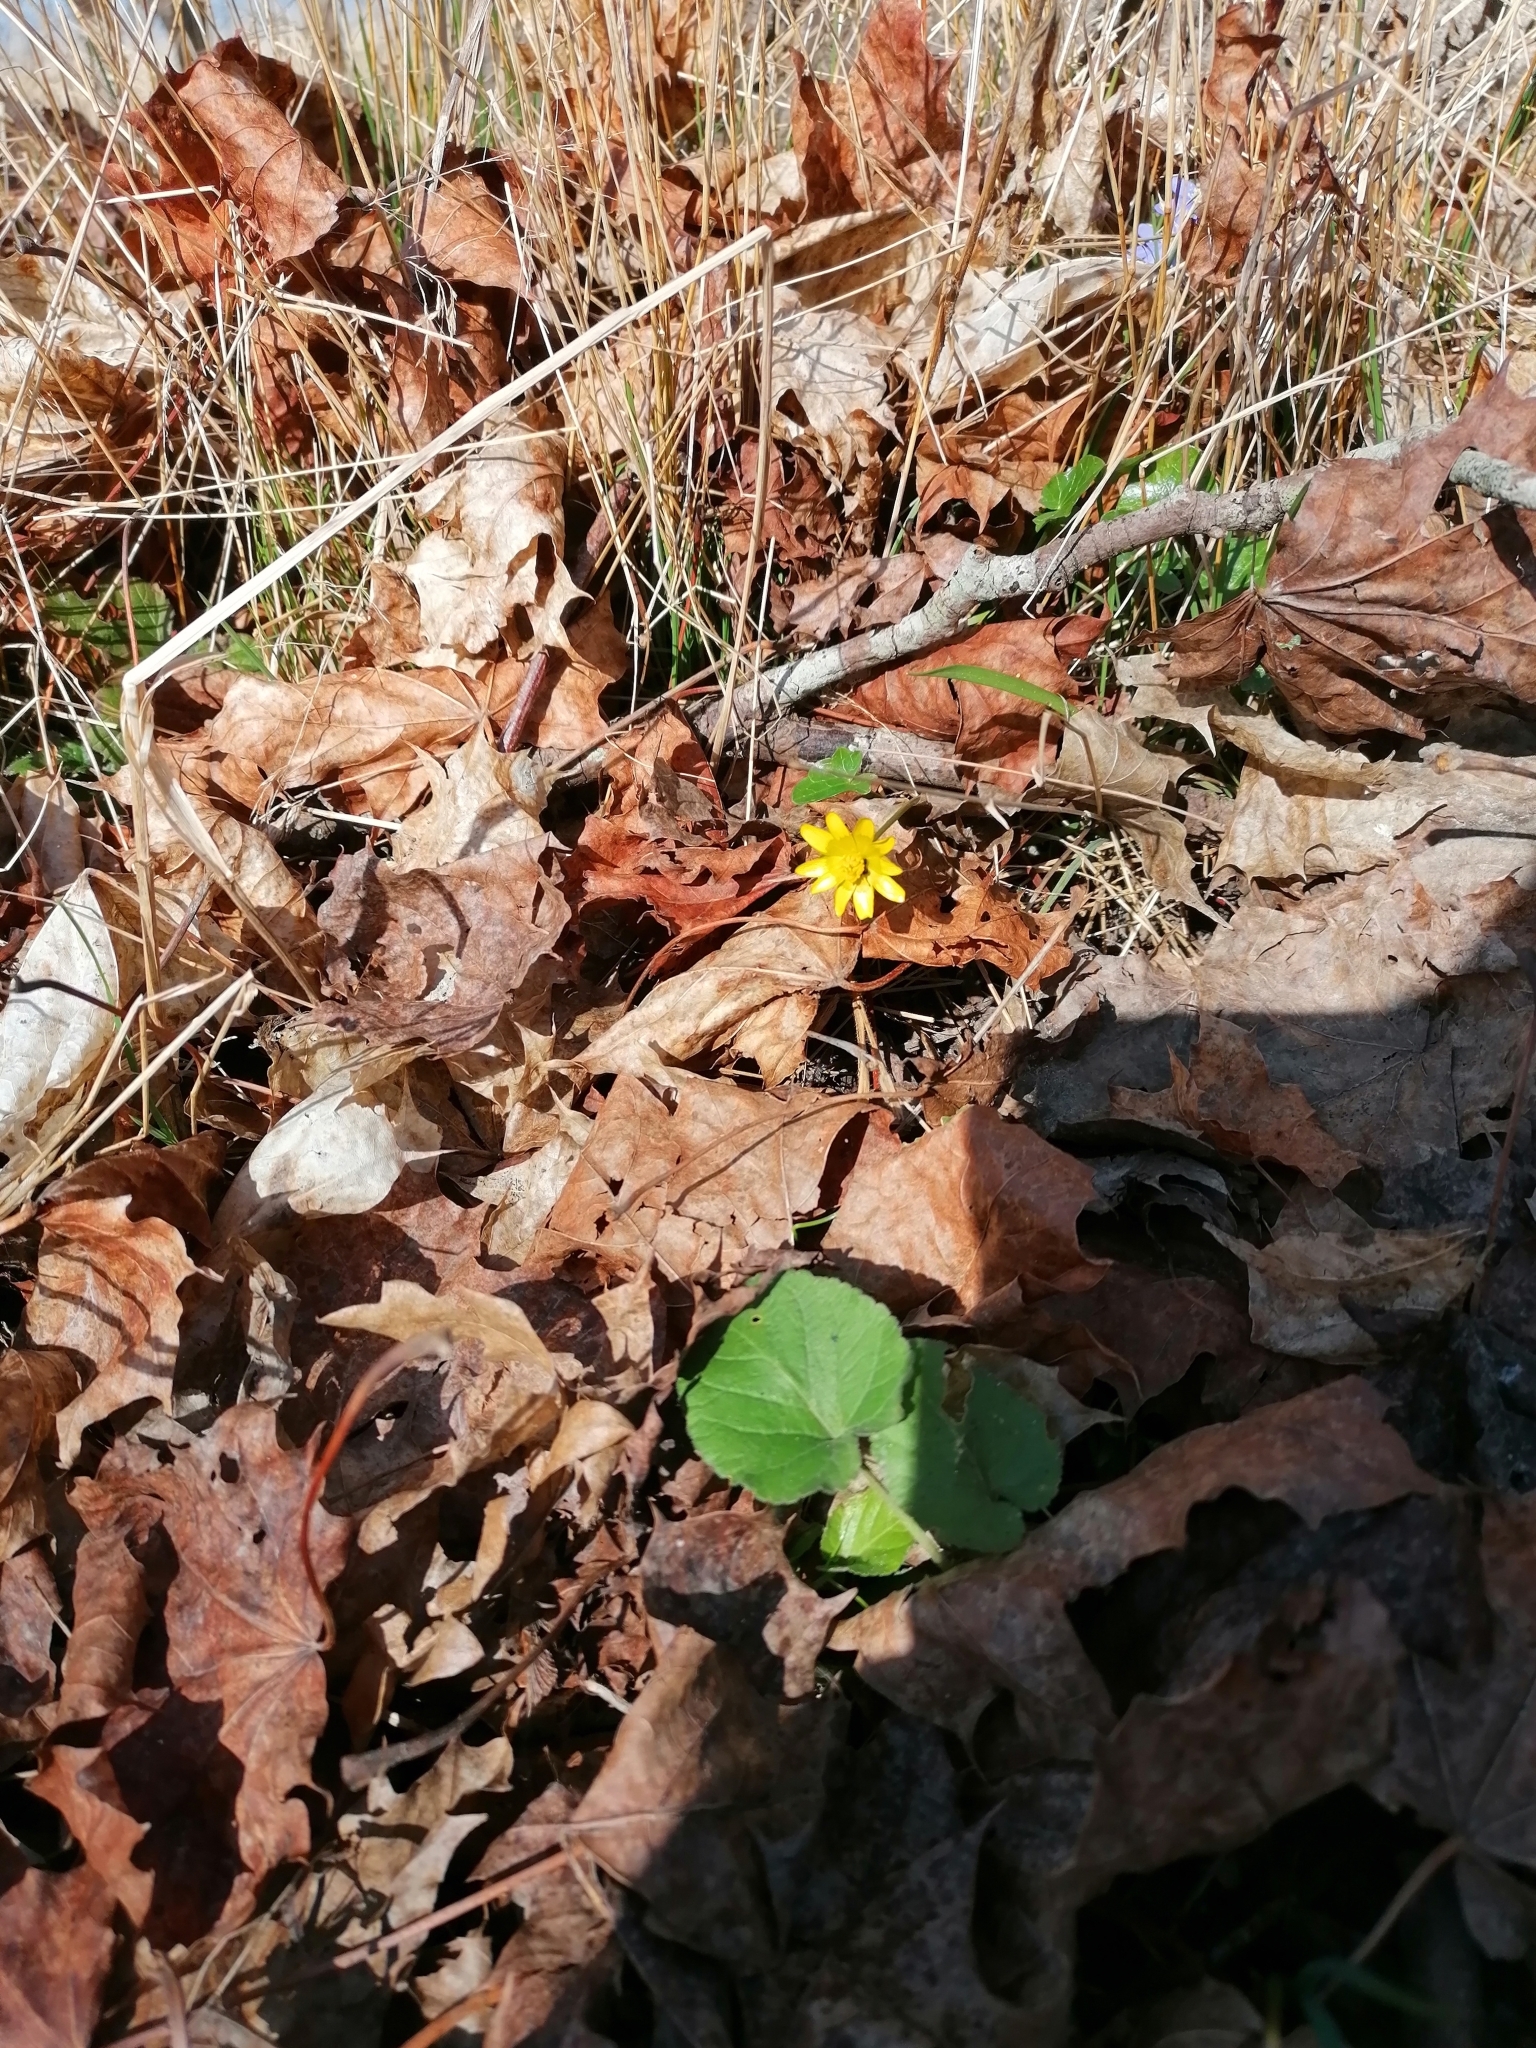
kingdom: Plantae
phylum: Tracheophyta
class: Magnoliopsida
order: Ranunculales
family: Ranunculaceae
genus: Ficaria
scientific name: Ficaria verna
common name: Lesser celandine
